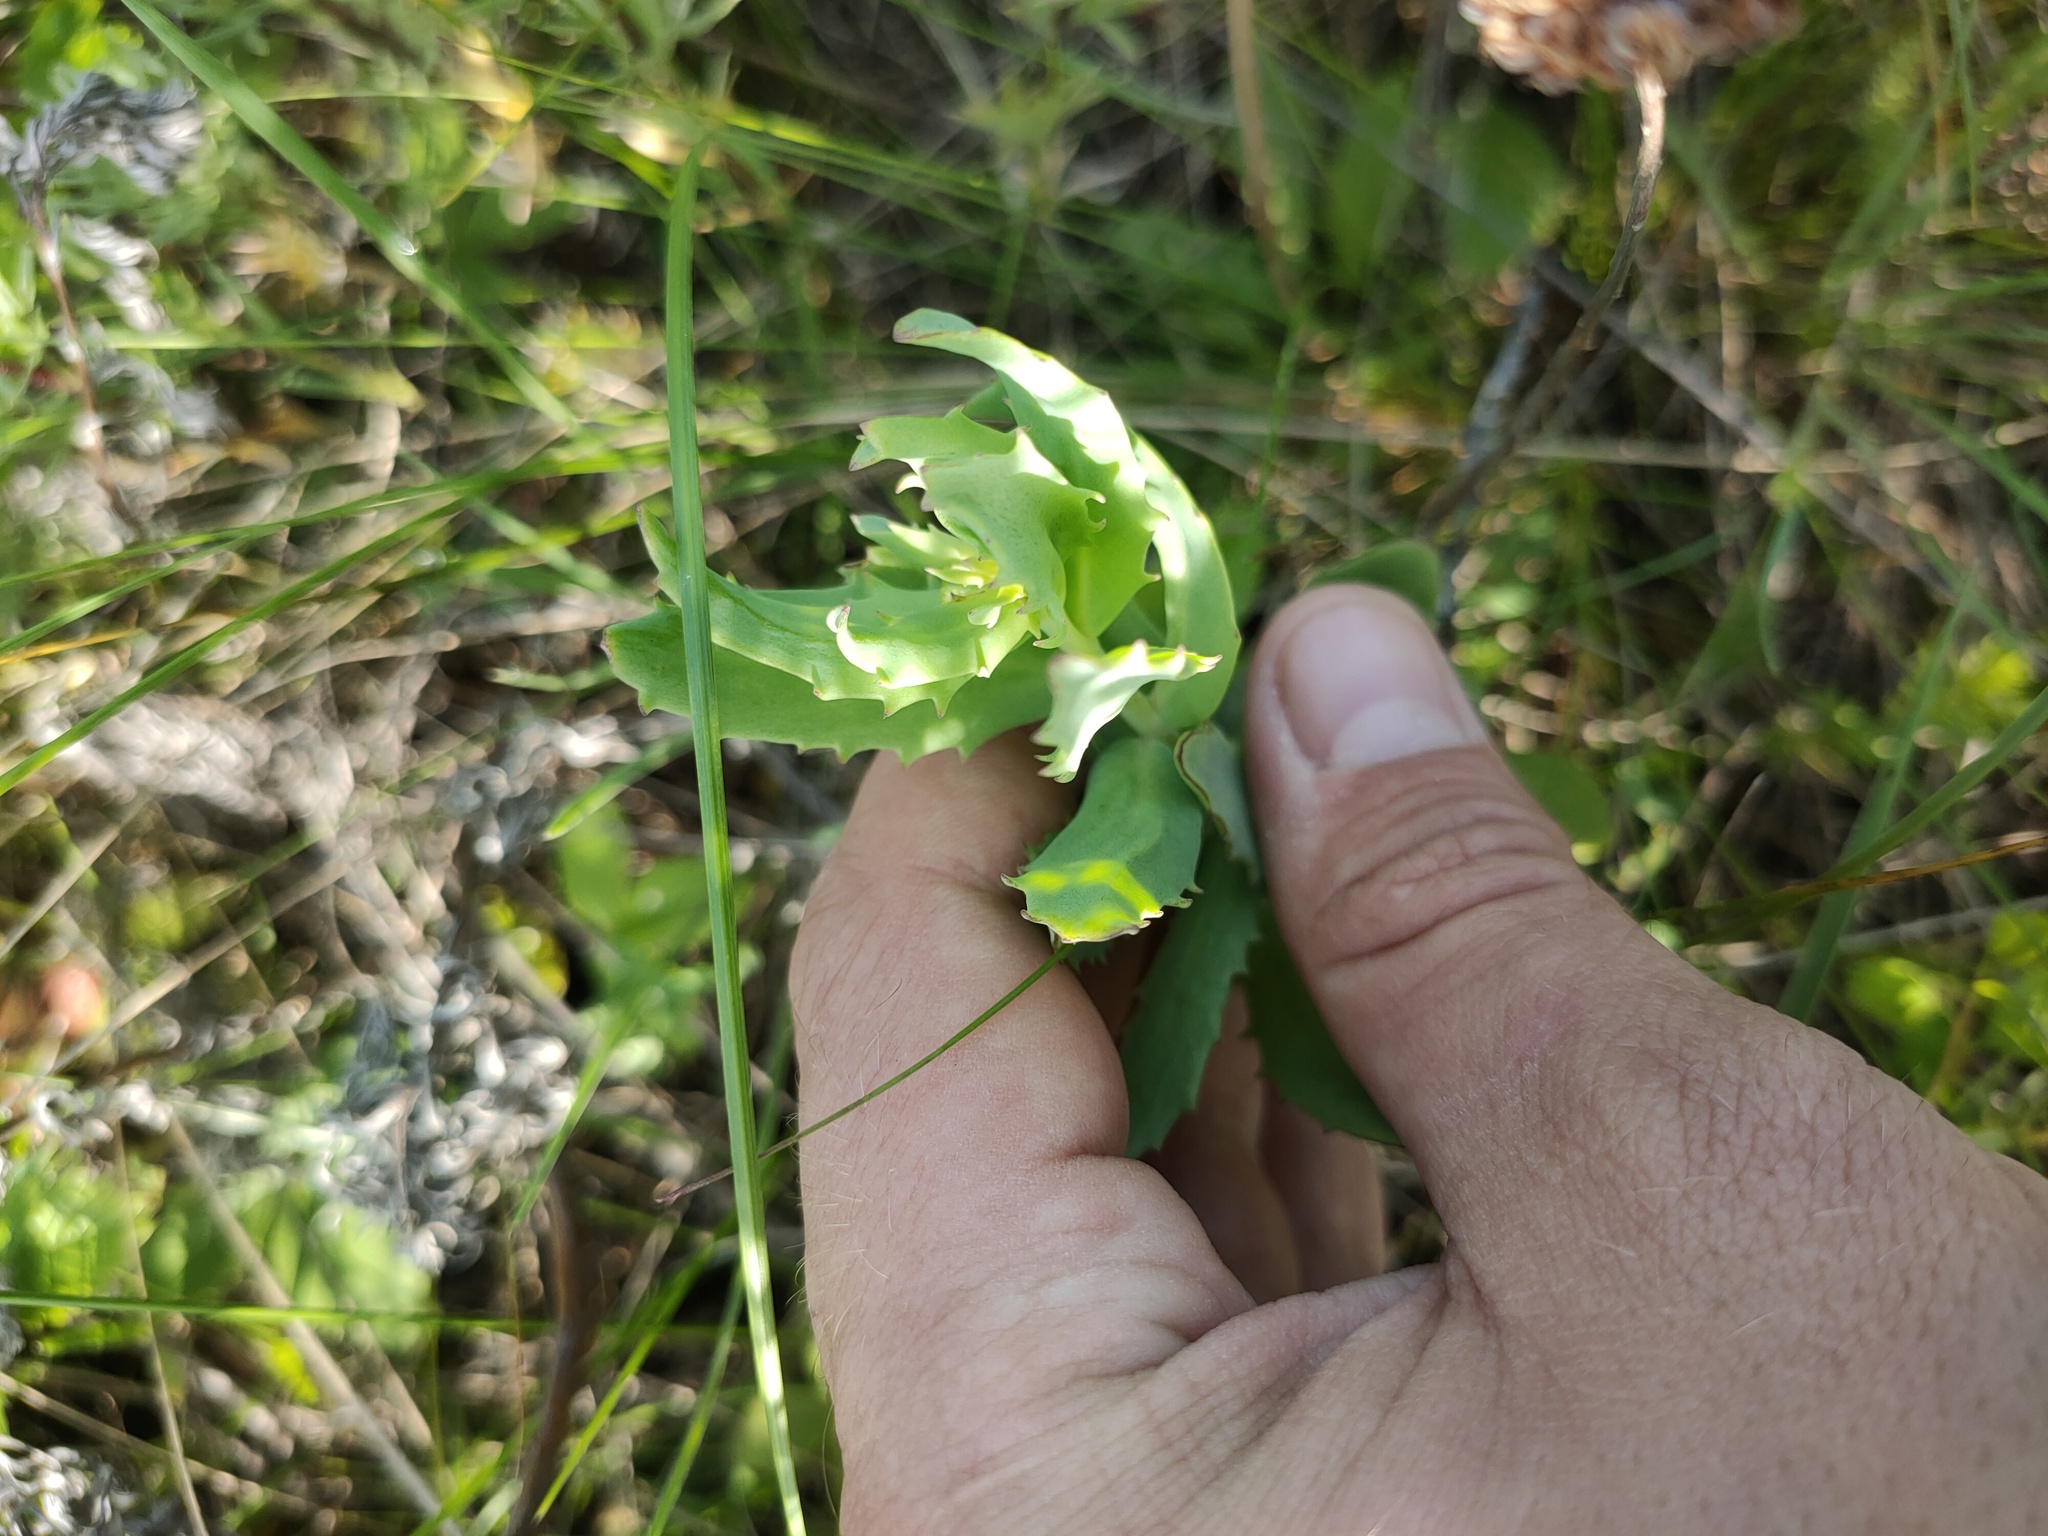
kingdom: Plantae
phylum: Tracheophyta
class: Magnoliopsida
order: Saxifragales
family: Crassulaceae
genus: Hylotelephium
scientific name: Hylotelephium telephium
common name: Live-forever
